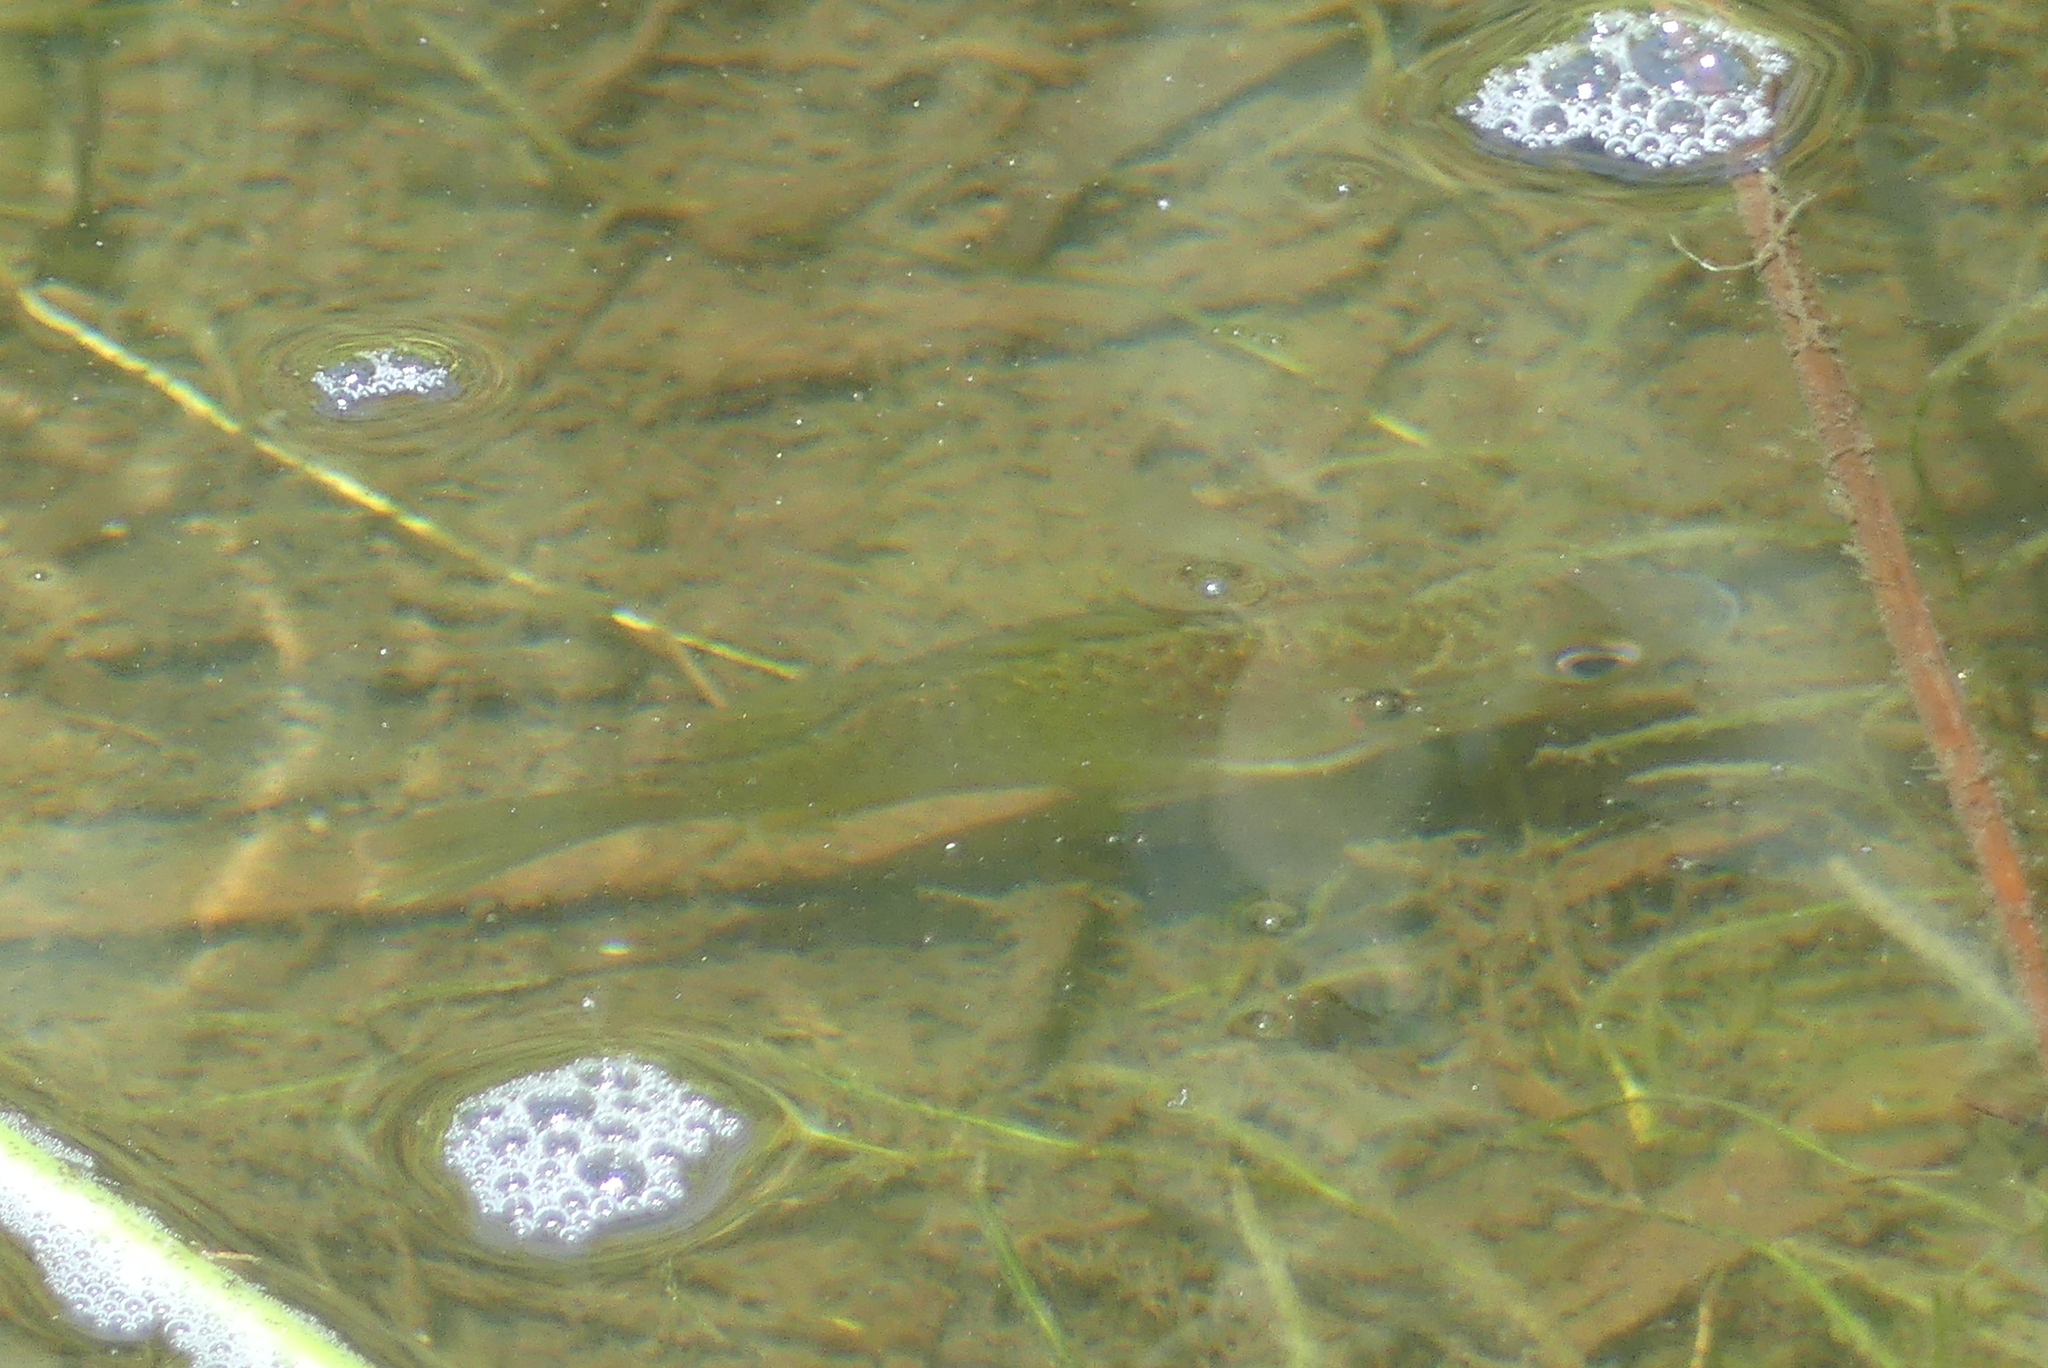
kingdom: Animalia
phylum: Chordata
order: Perciformes
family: Centrarchidae
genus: Lepomis
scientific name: Lepomis gibbosus
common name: Pumpkinseed
